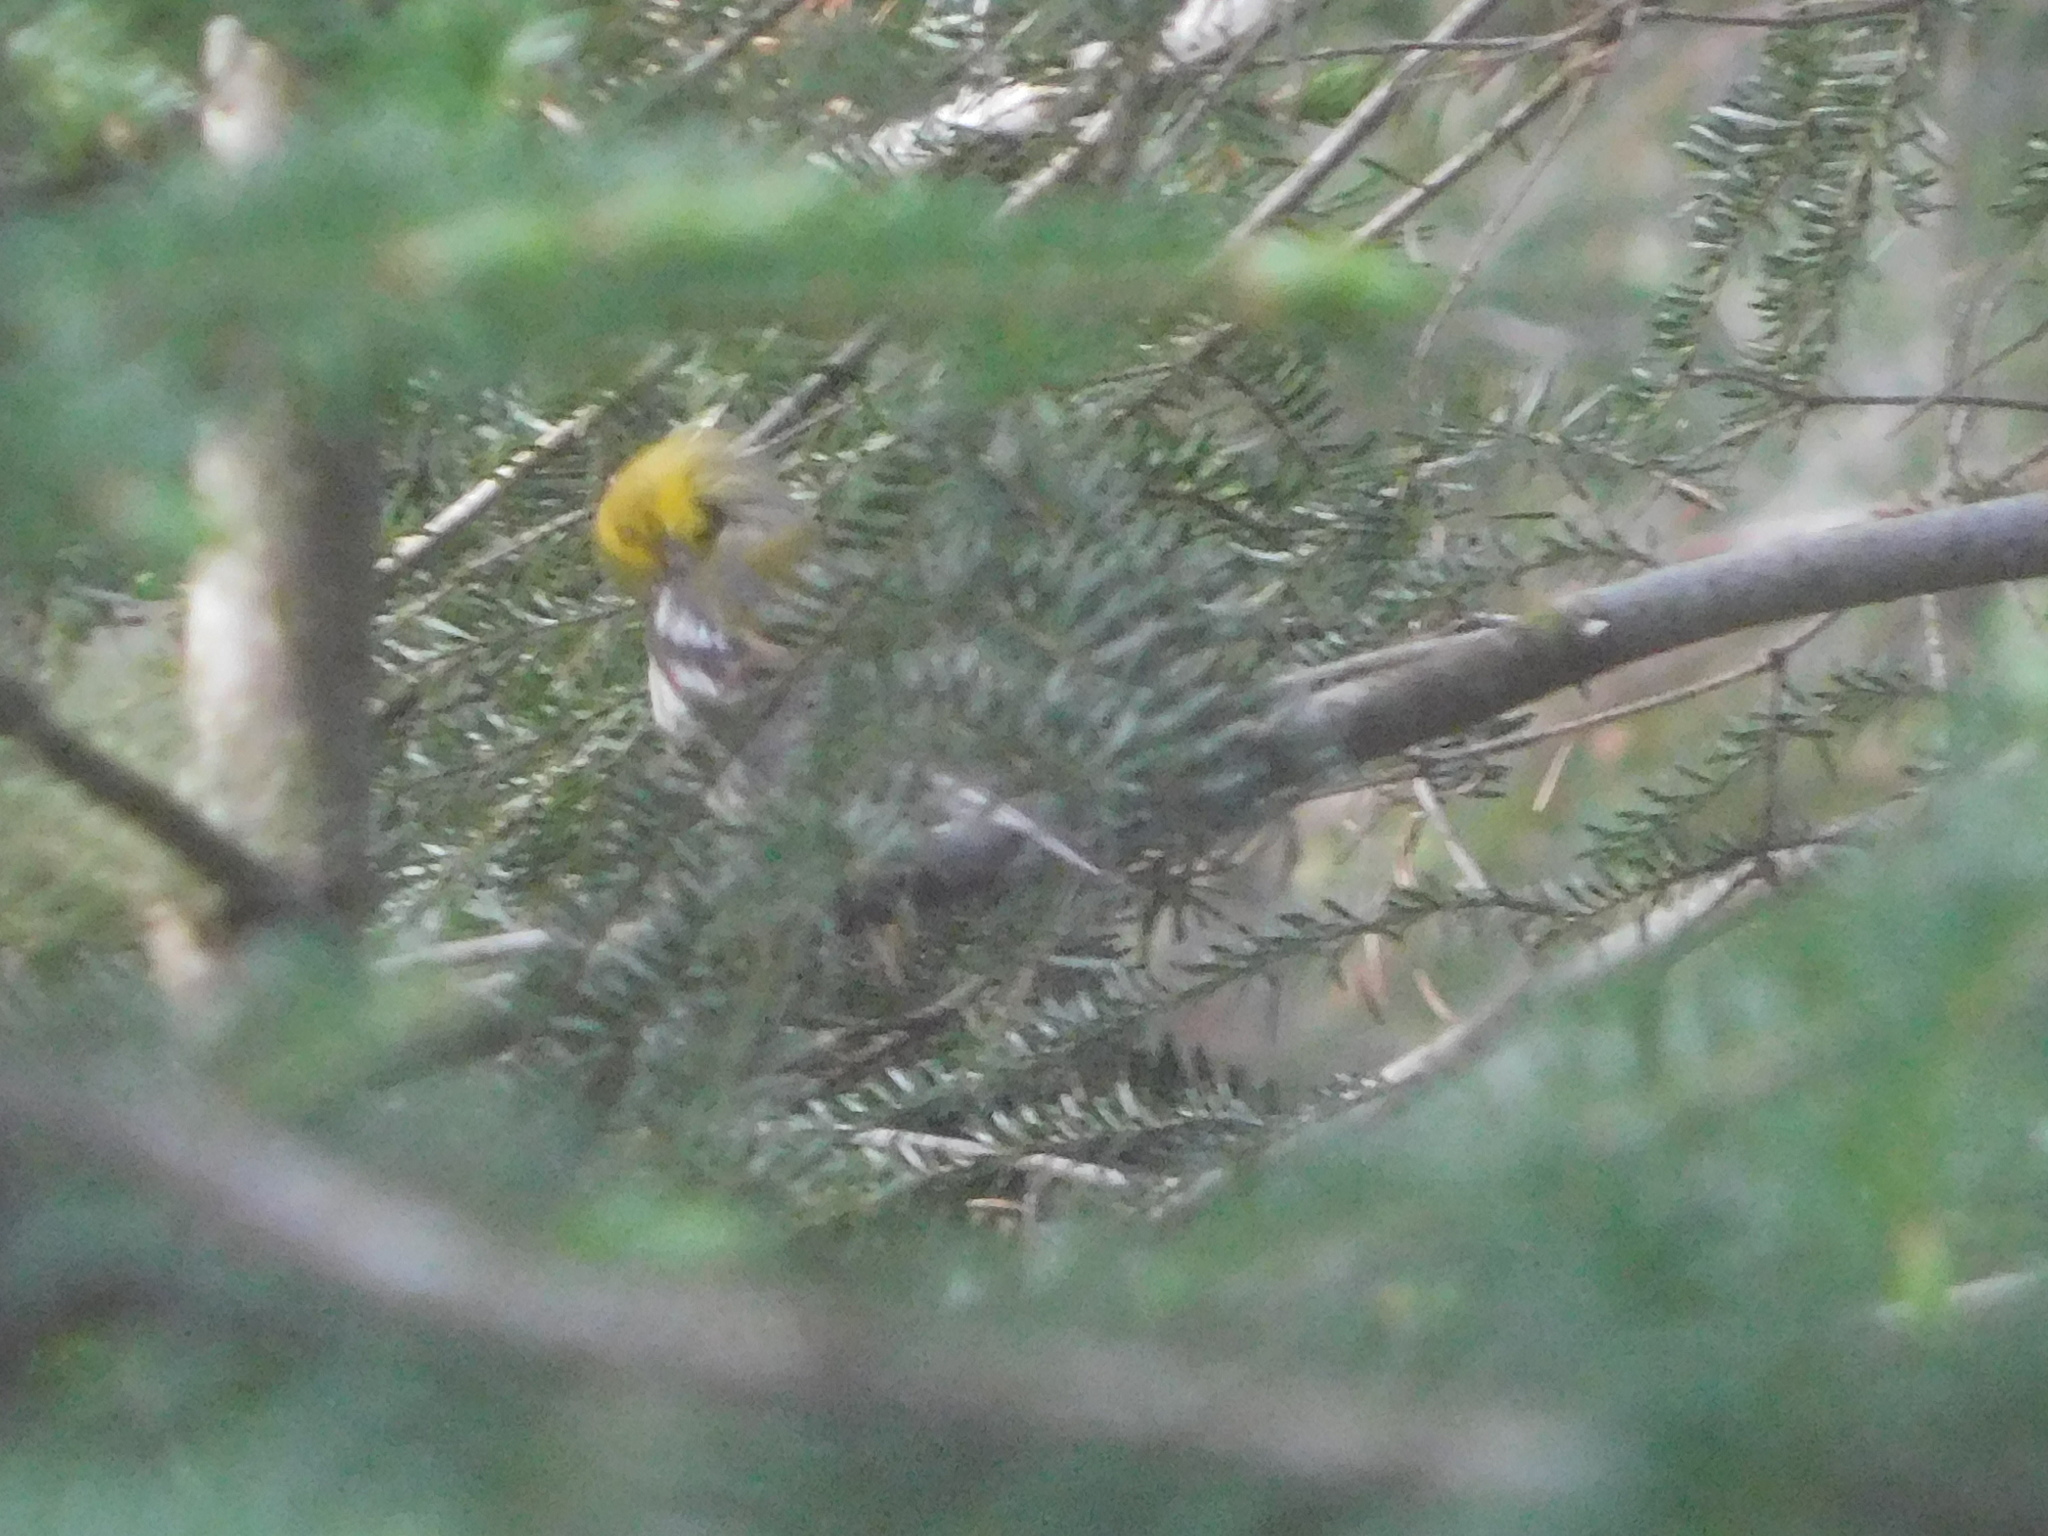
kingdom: Animalia
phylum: Chordata
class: Aves
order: Passeriformes
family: Parulidae
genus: Setophaga
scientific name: Setophaga virens
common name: Black-throated green warbler
